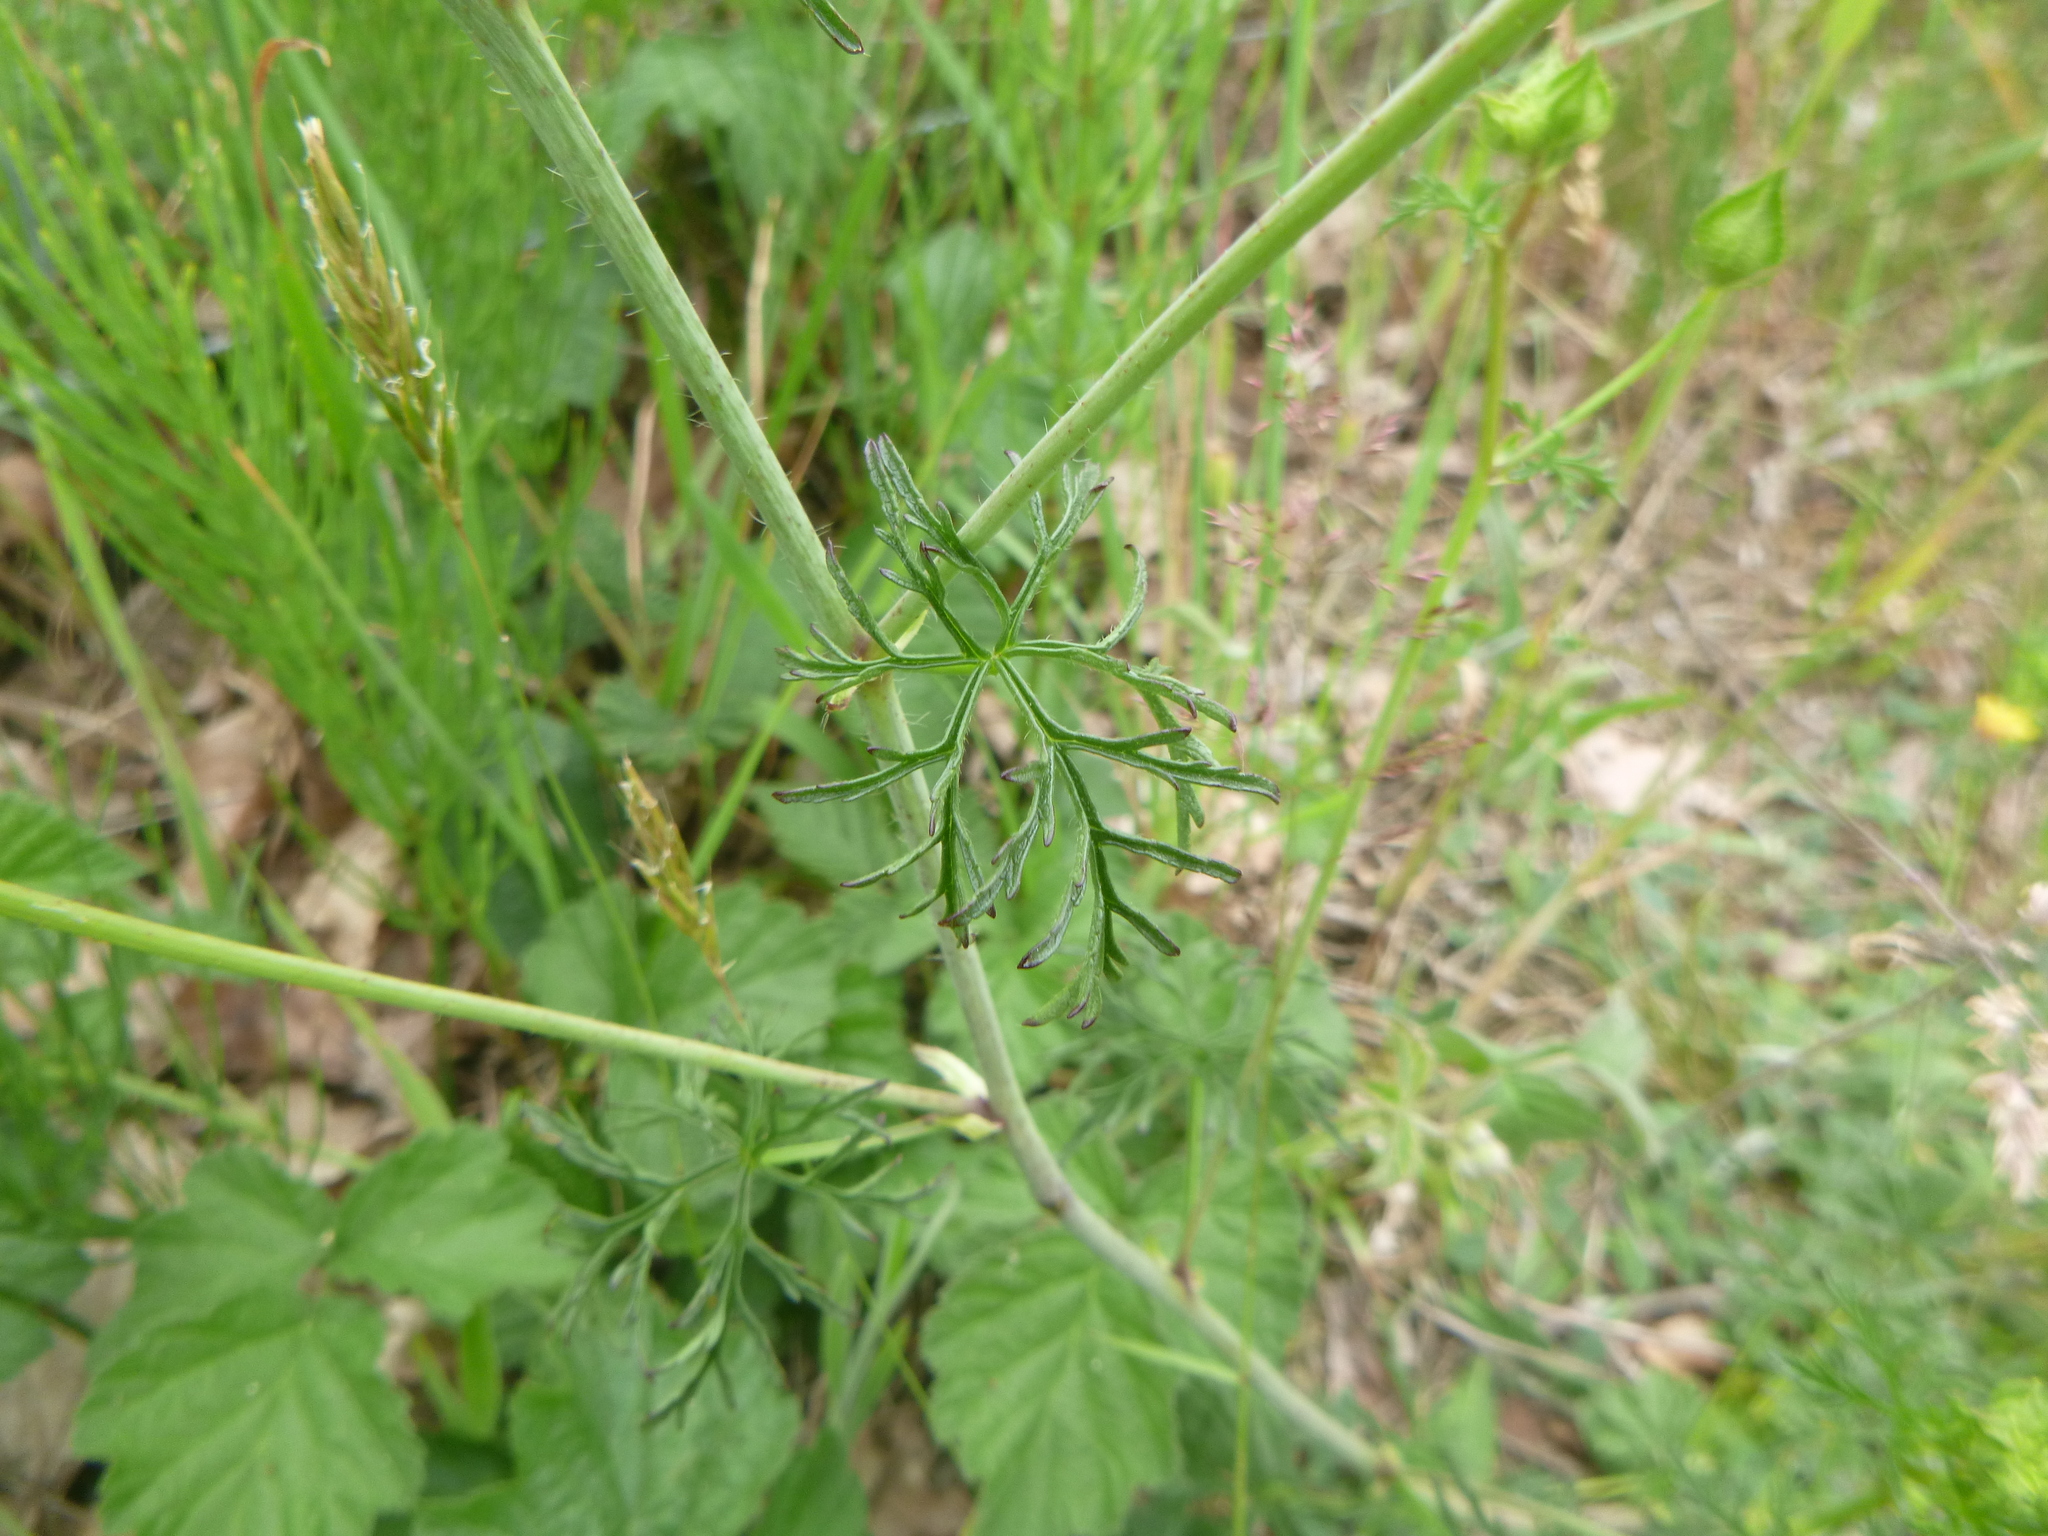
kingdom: Plantae
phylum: Tracheophyta
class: Magnoliopsida
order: Malvales
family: Malvaceae
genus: Malva
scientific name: Malva moschata
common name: Musk mallow
